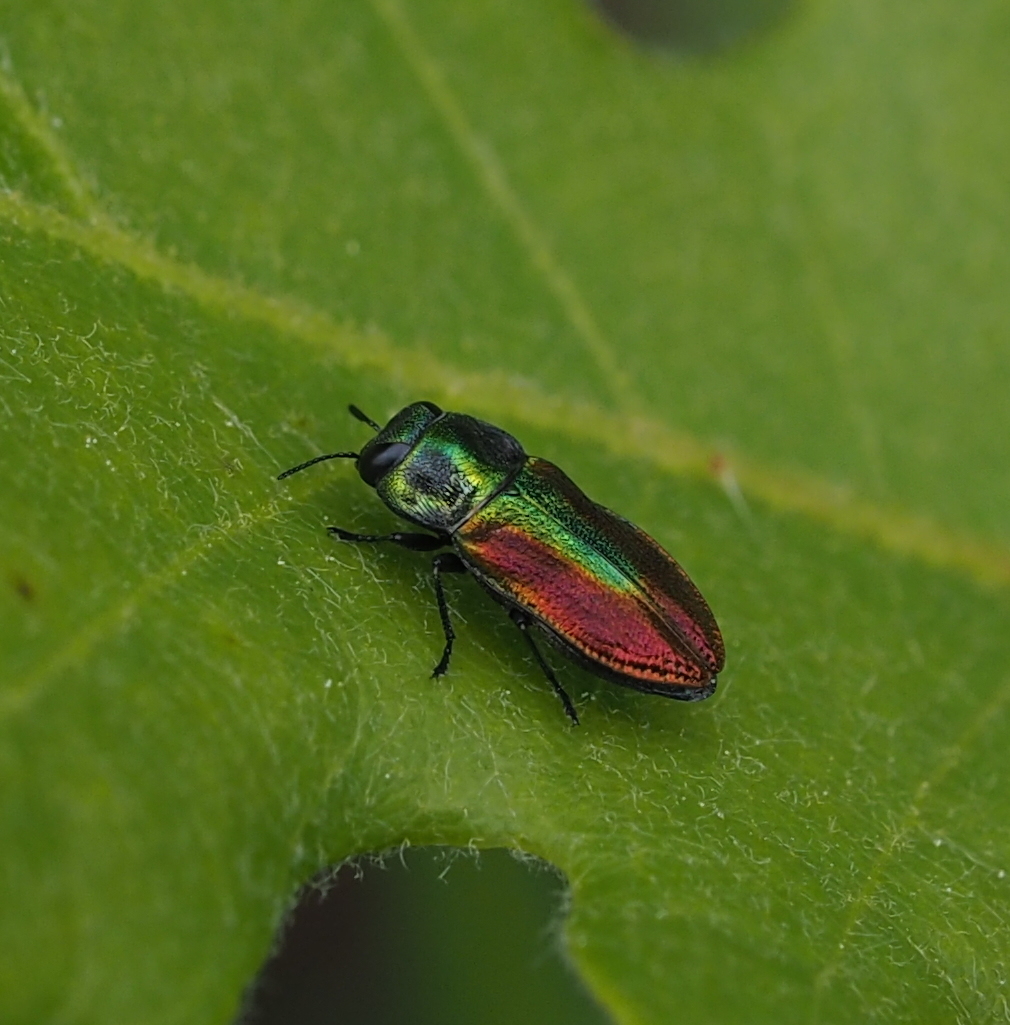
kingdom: Animalia
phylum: Arthropoda
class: Insecta
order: Coleoptera
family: Buprestidae
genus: Anthaxia
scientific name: Anthaxia fulgurans
